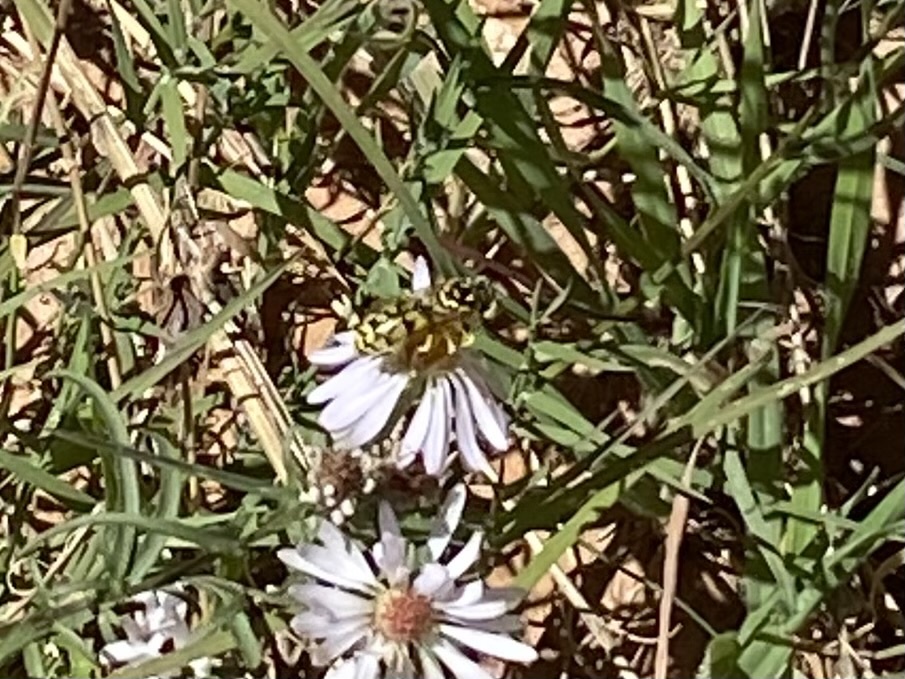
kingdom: Animalia
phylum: Arthropoda
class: Insecta
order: Hymenoptera
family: Crabronidae
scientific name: Crabronidae
